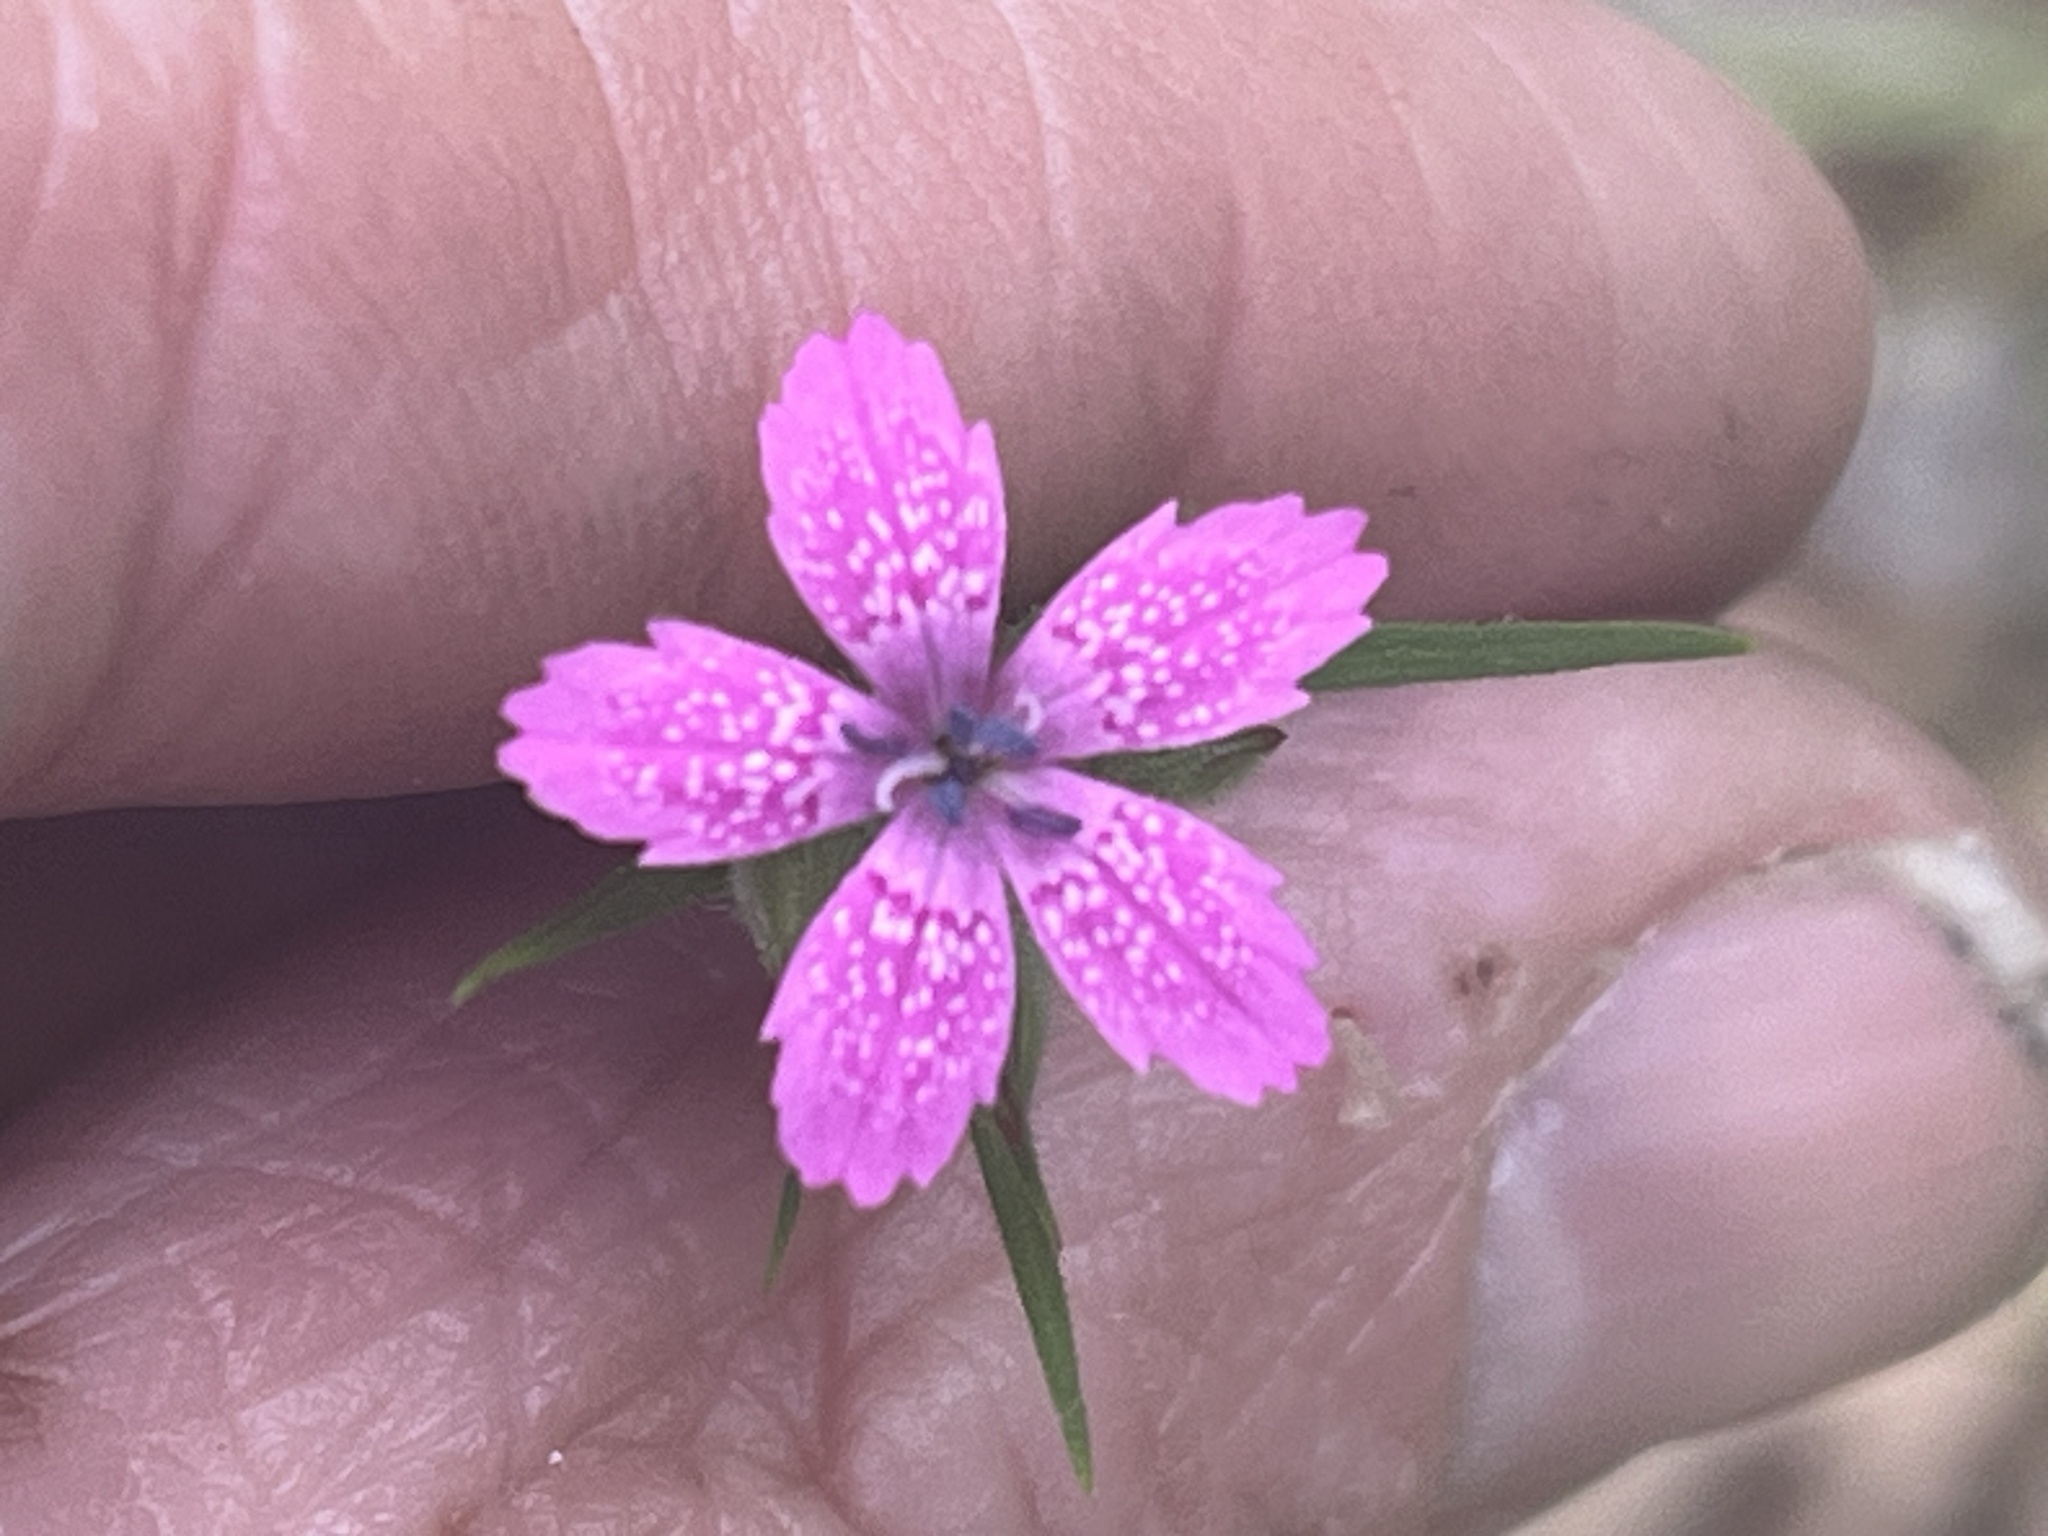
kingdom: Plantae
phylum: Tracheophyta
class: Magnoliopsida
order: Caryophyllales
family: Caryophyllaceae
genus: Dianthus
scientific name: Dianthus armeria
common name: Deptford pink
